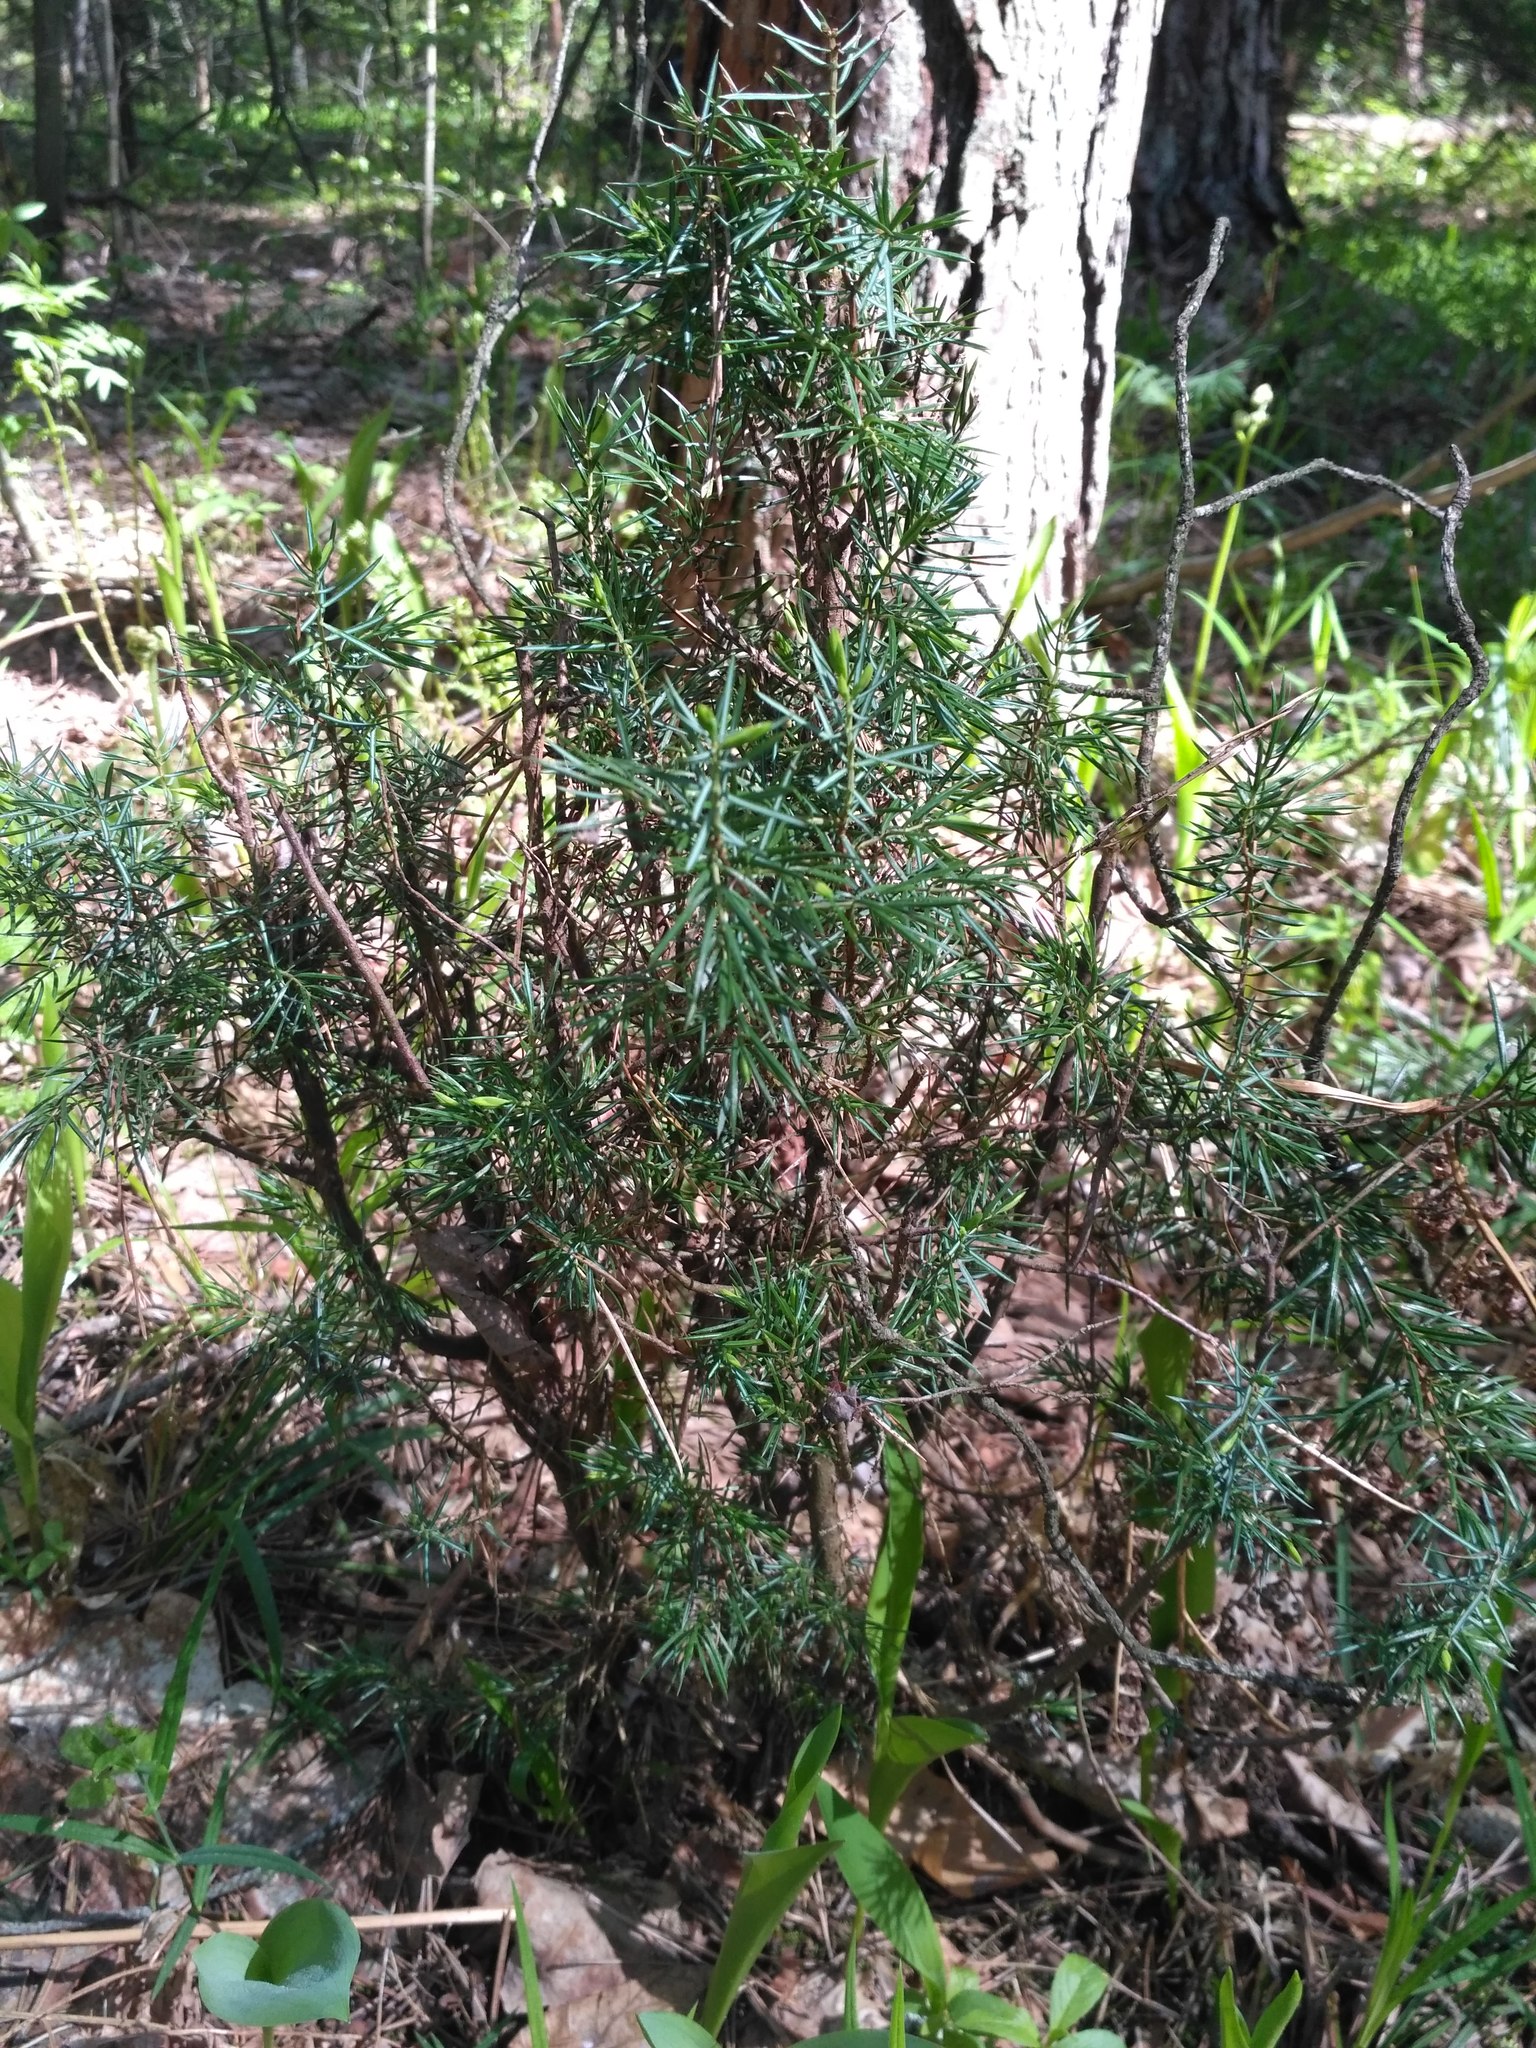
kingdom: Plantae
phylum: Tracheophyta
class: Pinopsida
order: Pinales
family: Cupressaceae
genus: Juniperus
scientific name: Juniperus communis
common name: Common juniper
